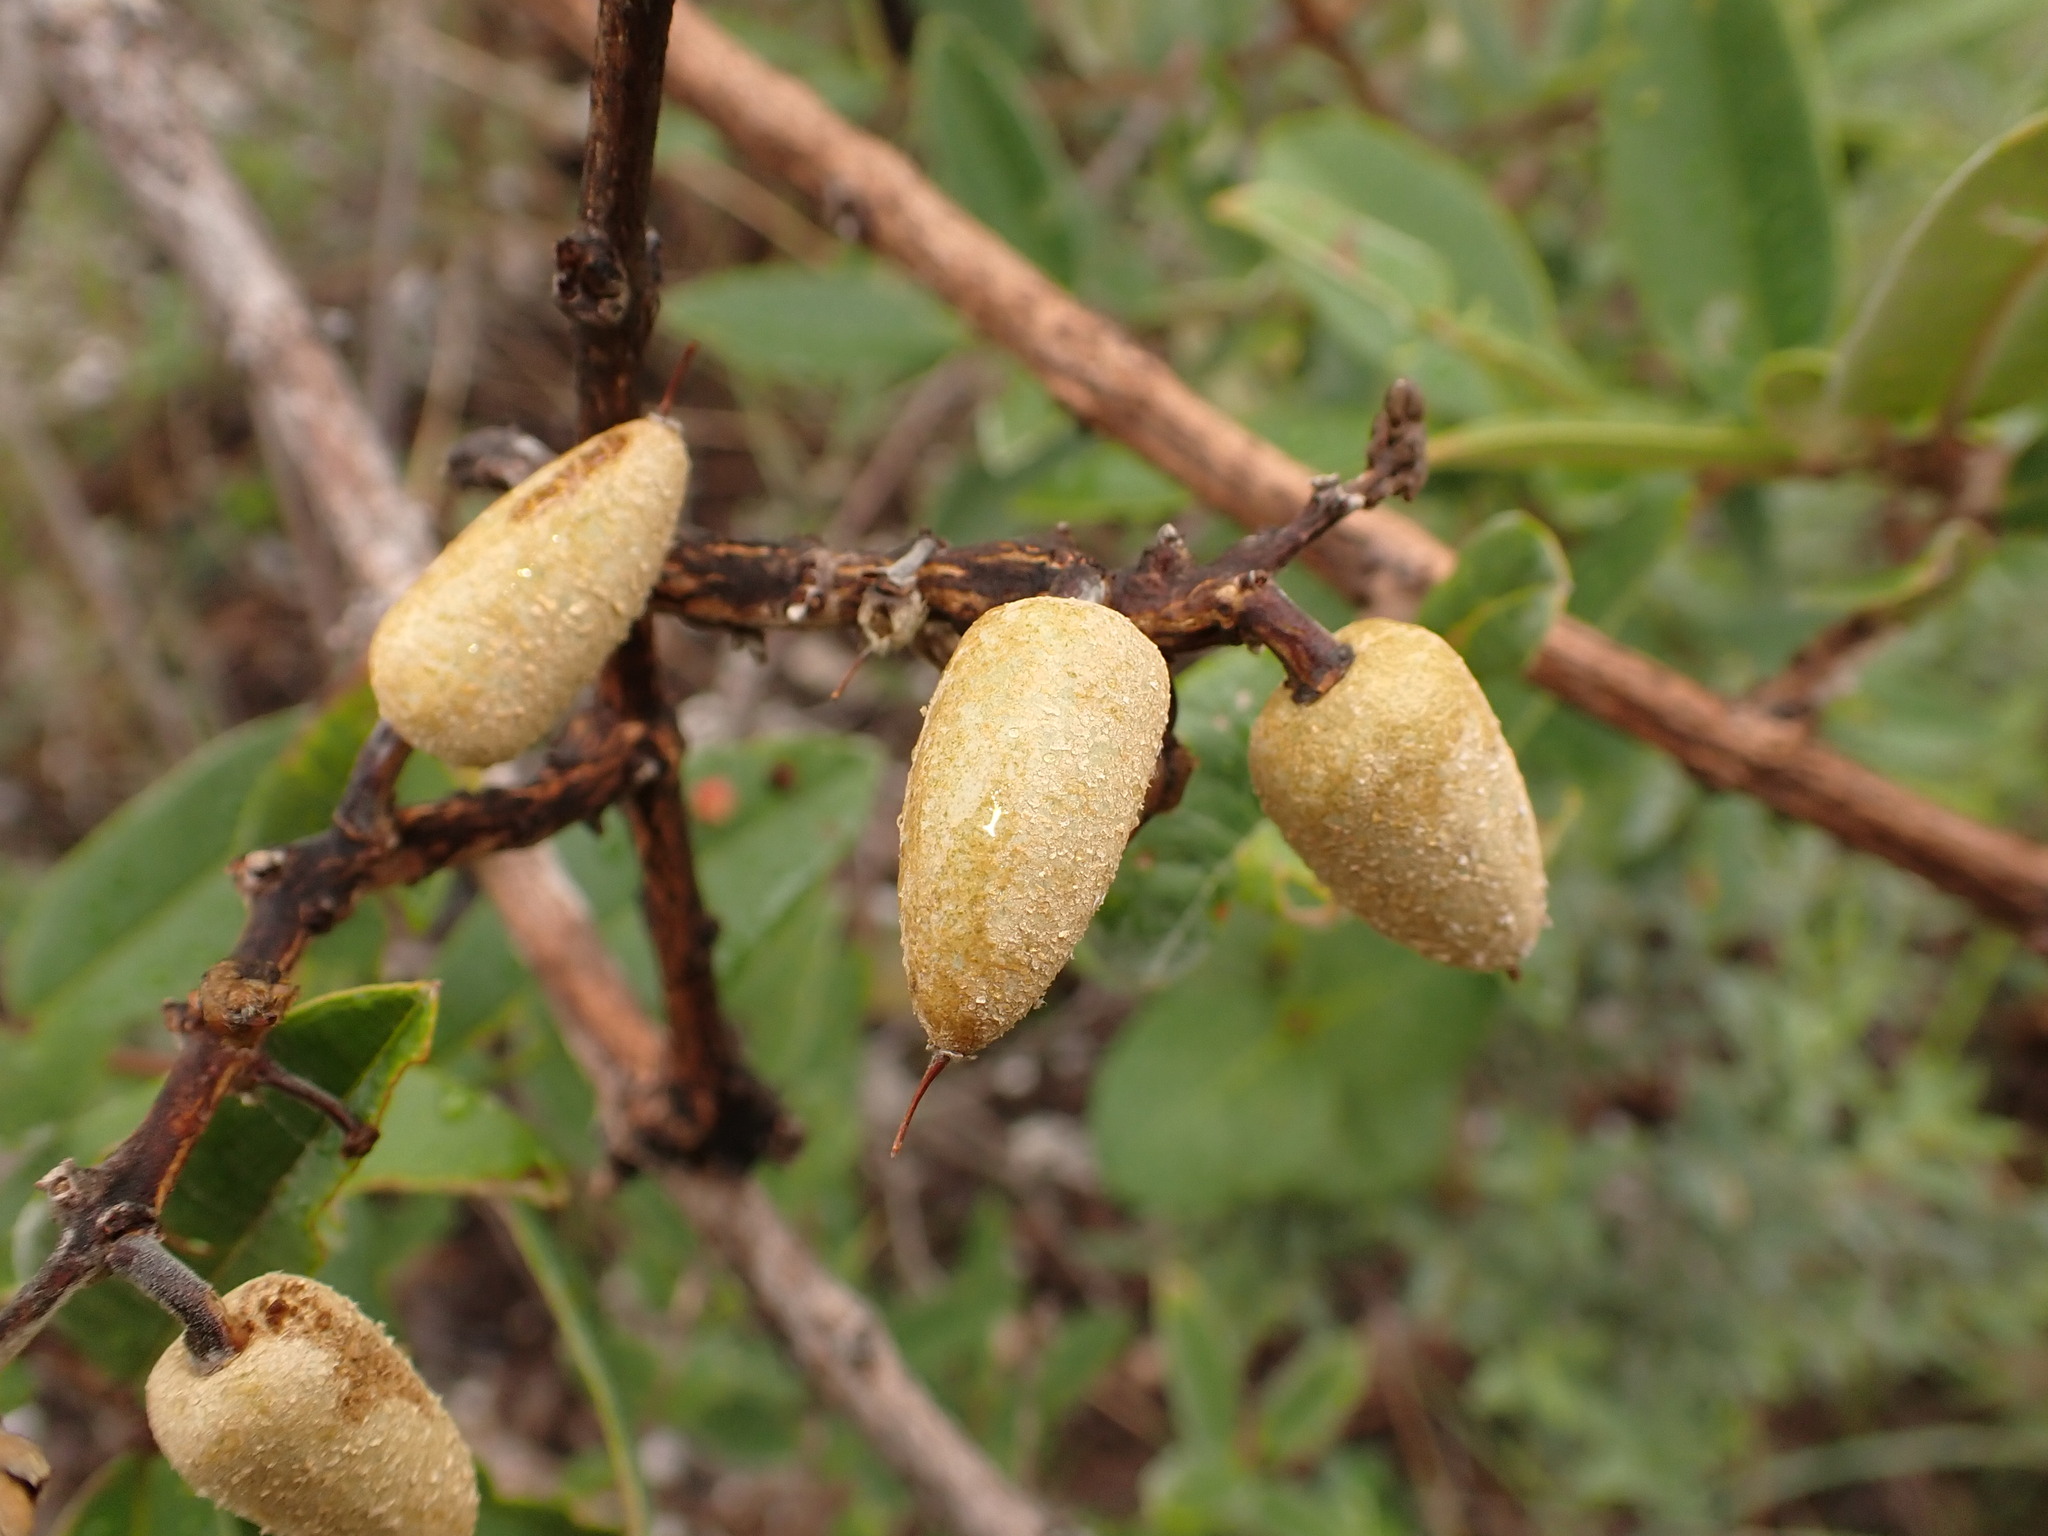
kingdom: Plantae
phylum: Tracheophyta
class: Magnoliopsida
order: Myrtales
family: Vochysiaceae
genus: Qualea
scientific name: Qualea parviflora
